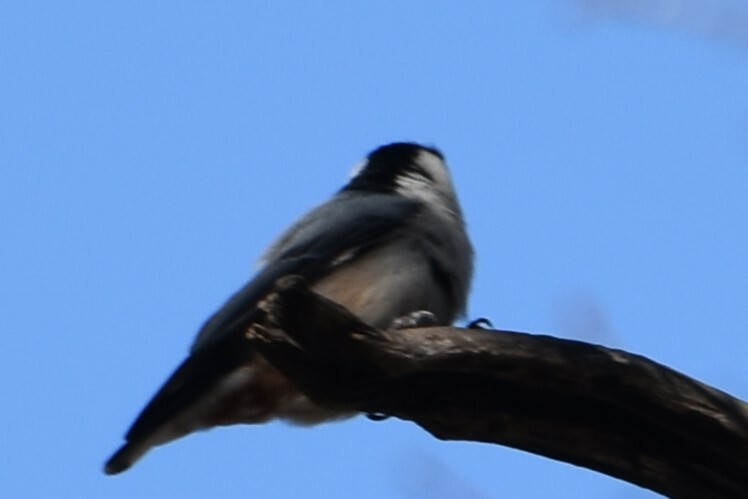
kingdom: Animalia
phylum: Chordata
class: Aves
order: Passeriformes
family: Sittidae
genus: Sitta
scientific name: Sitta carolinensis
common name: White-breasted nuthatch
